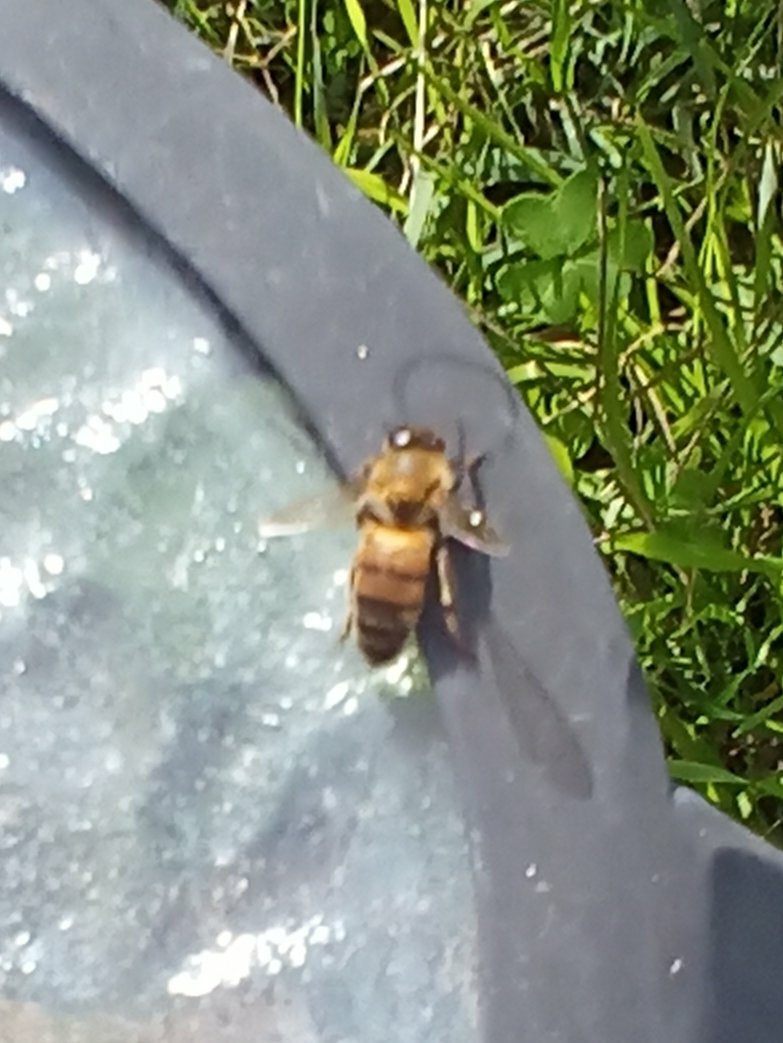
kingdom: Animalia
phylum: Arthropoda
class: Insecta
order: Hymenoptera
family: Apidae
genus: Apis
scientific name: Apis mellifera
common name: Honey bee
